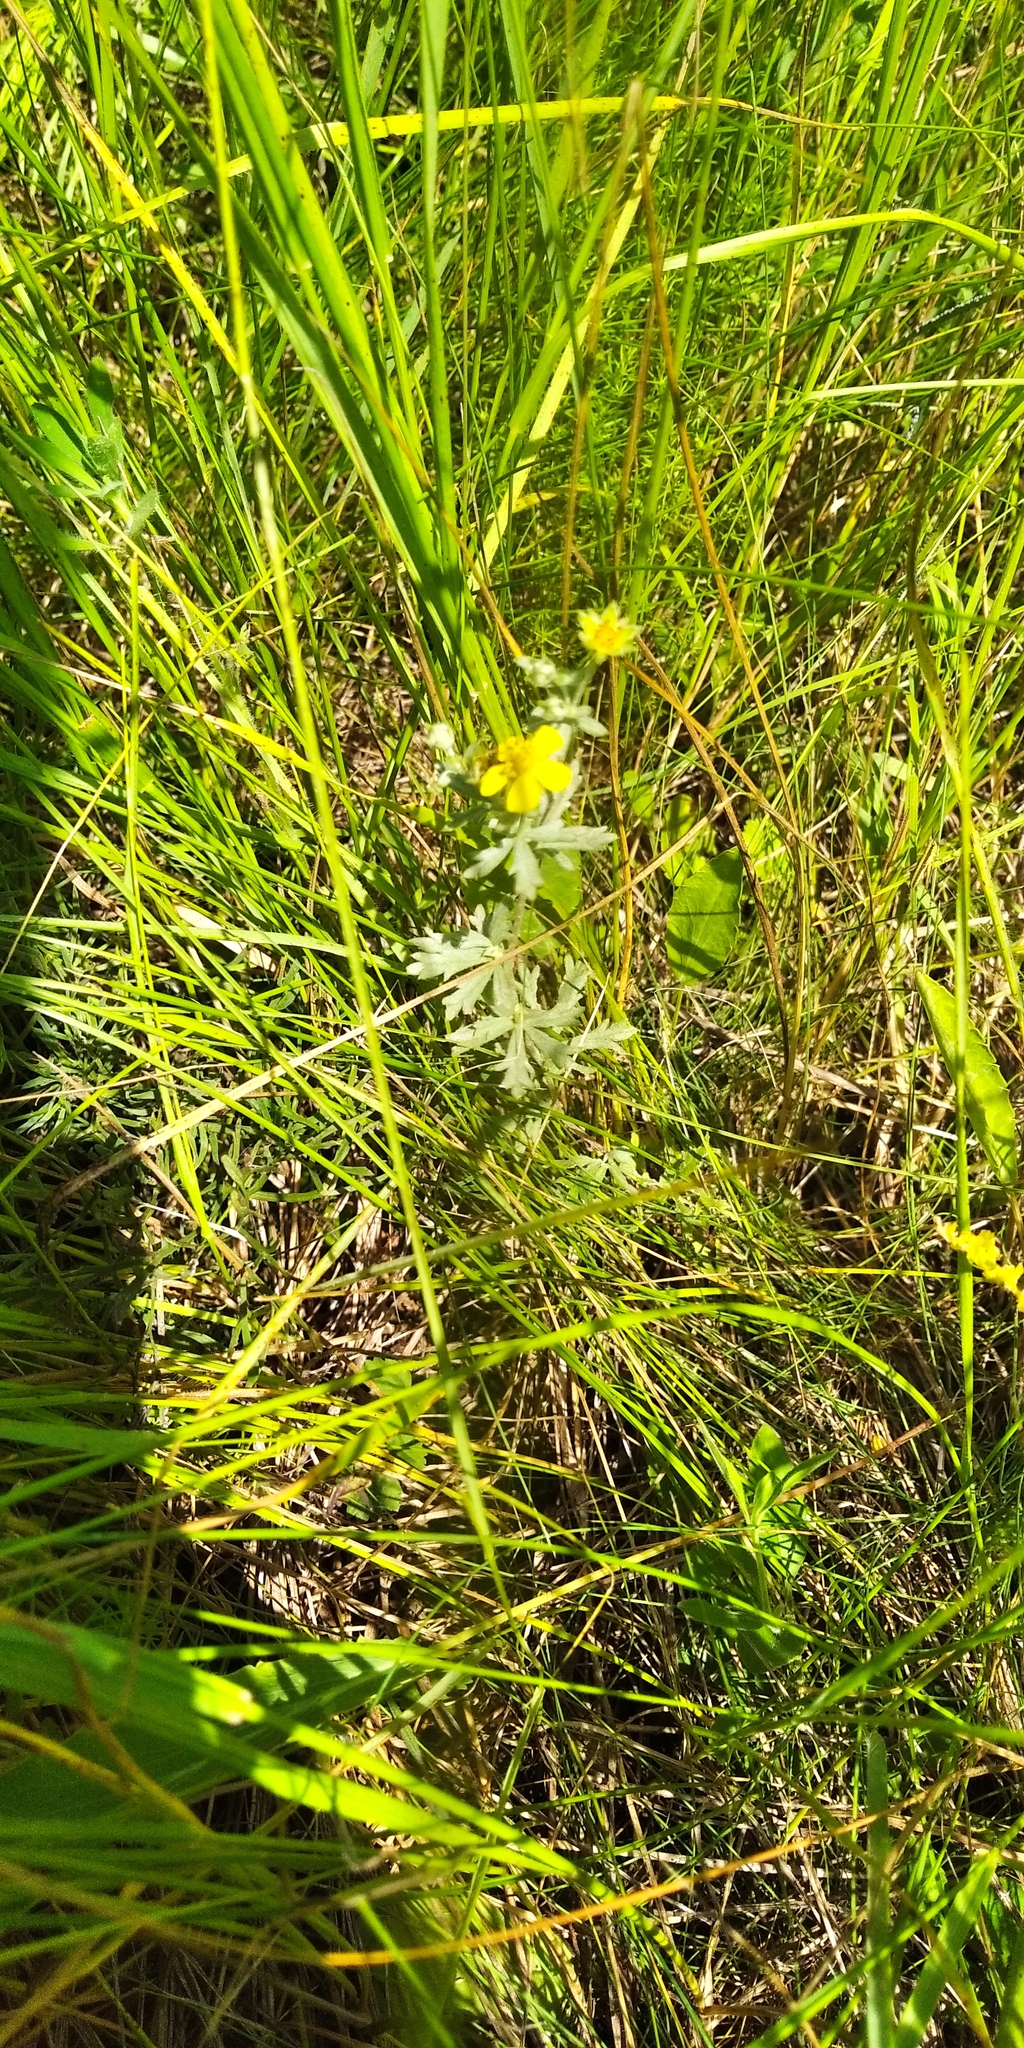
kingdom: Plantae
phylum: Tracheophyta
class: Magnoliopsida
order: Rosales
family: Rosaceae
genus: Potentilla
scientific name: Potentilla argentea
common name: Hoary cinquefoil
